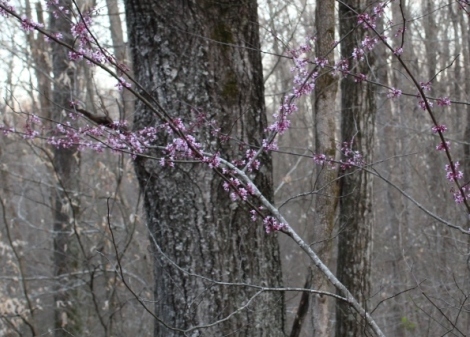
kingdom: Plantae
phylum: Tracheophyta
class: Magnoliopsida
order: Fabales
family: Fabaceae
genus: Cercis
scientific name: Cercis canadensis
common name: Eastern redbud
